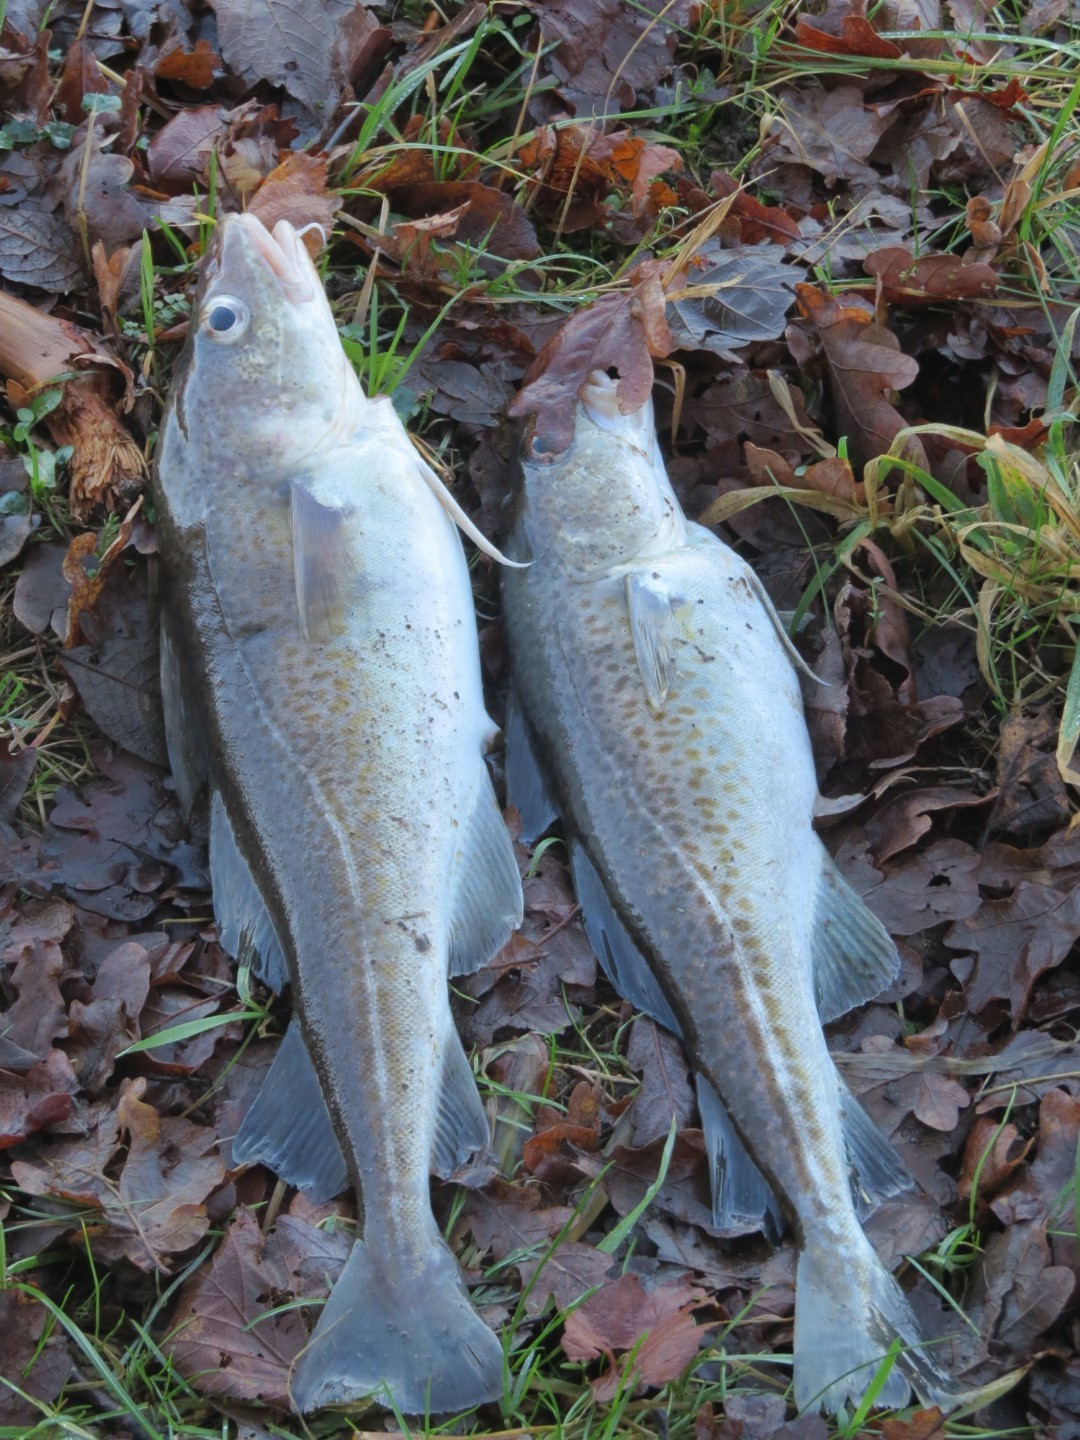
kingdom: Animalia
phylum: Chordata
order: Gadiformes
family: Gadidae
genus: Gadus
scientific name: Gadus morhua
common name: Atlantic cod
